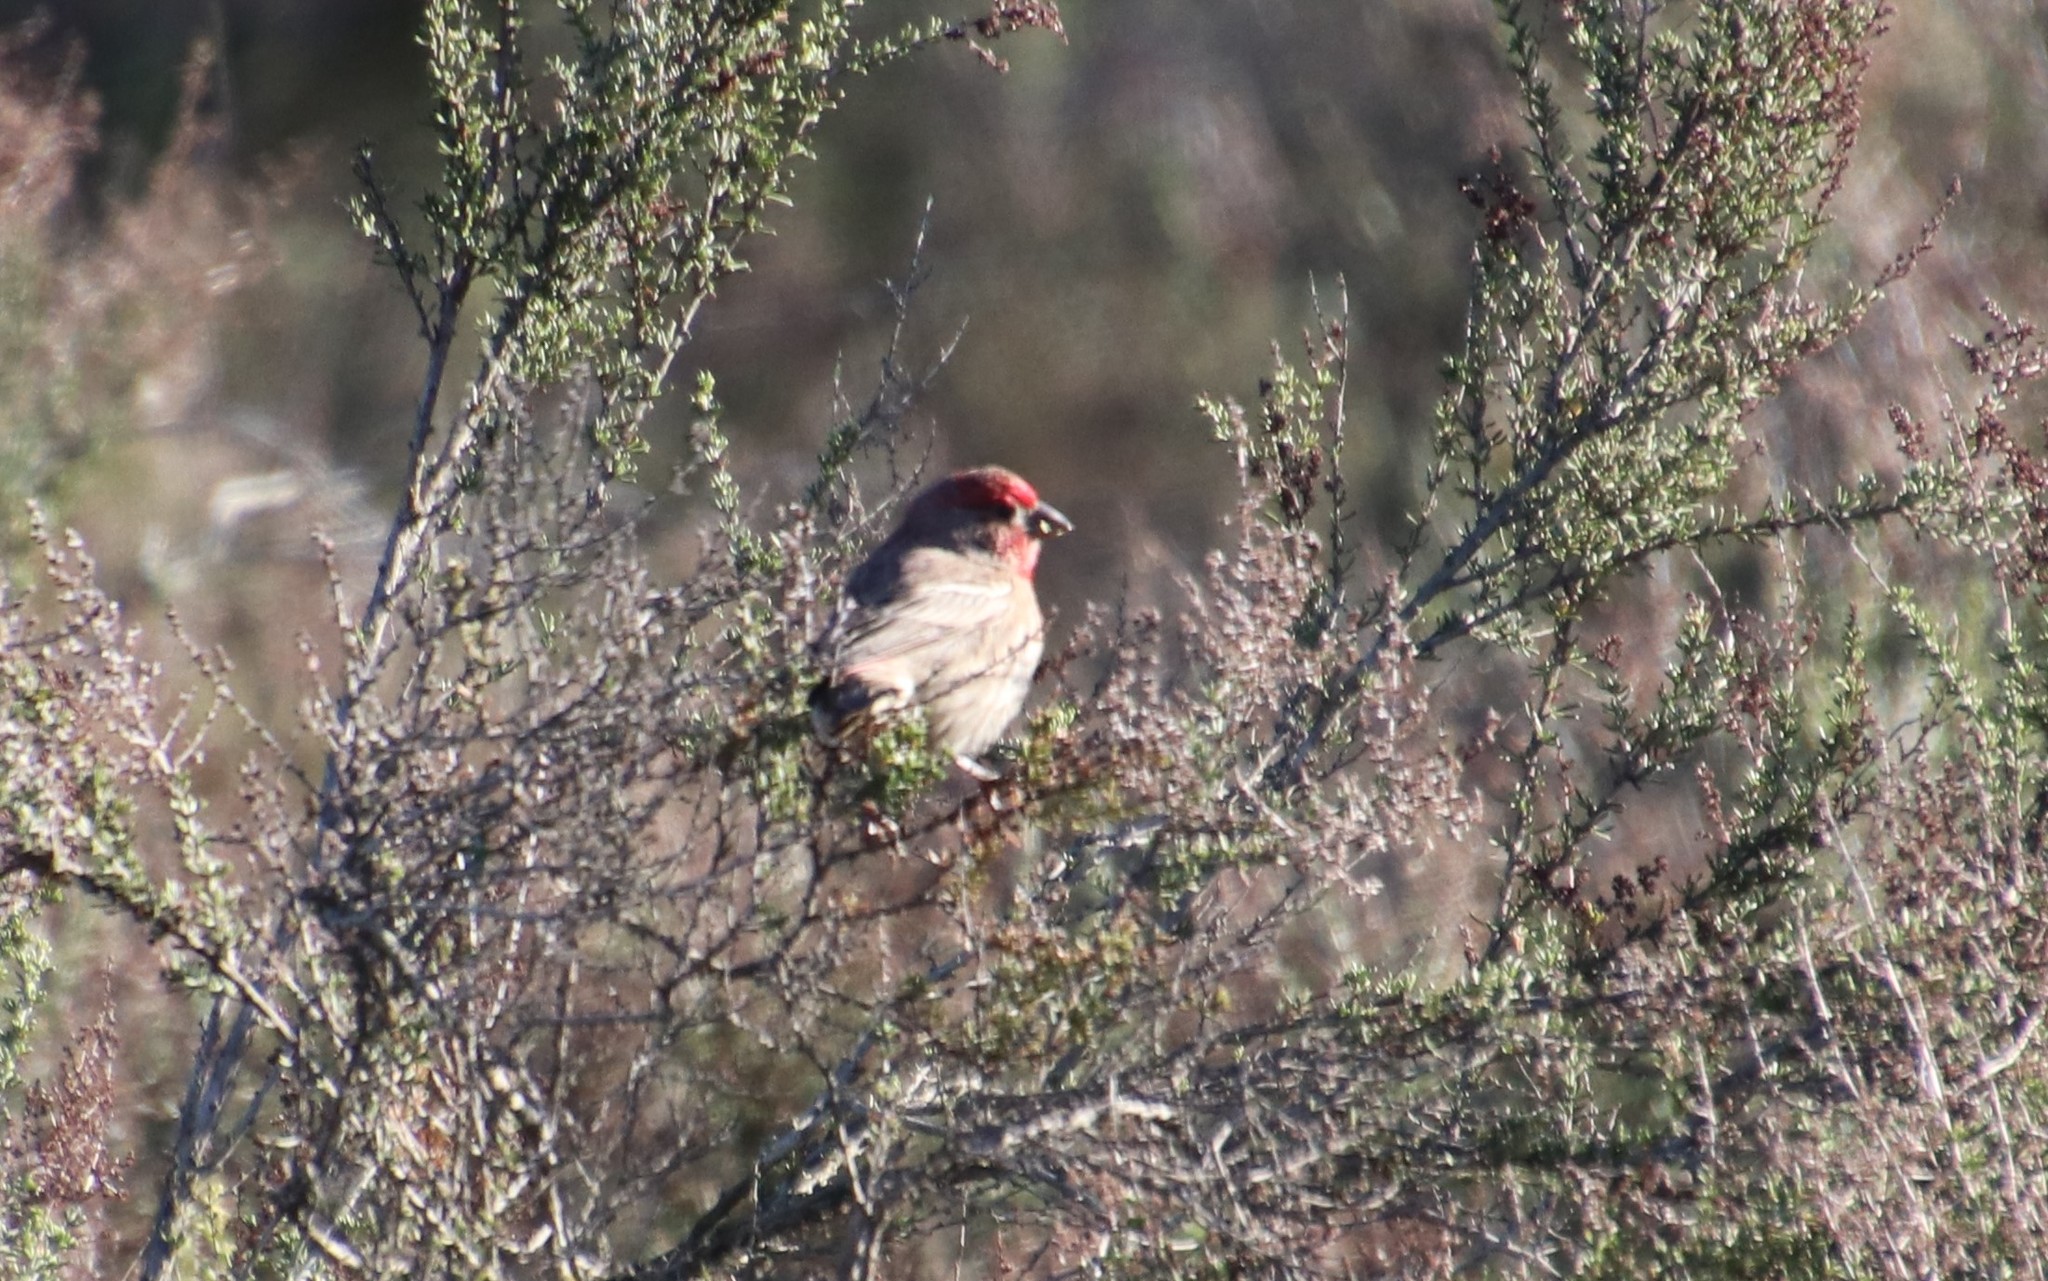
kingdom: Animalia
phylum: Chordata
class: Aves
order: Passeriformes
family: Fringillidae
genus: Haemorhous
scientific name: Haemorhous mexicanus
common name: House finch
